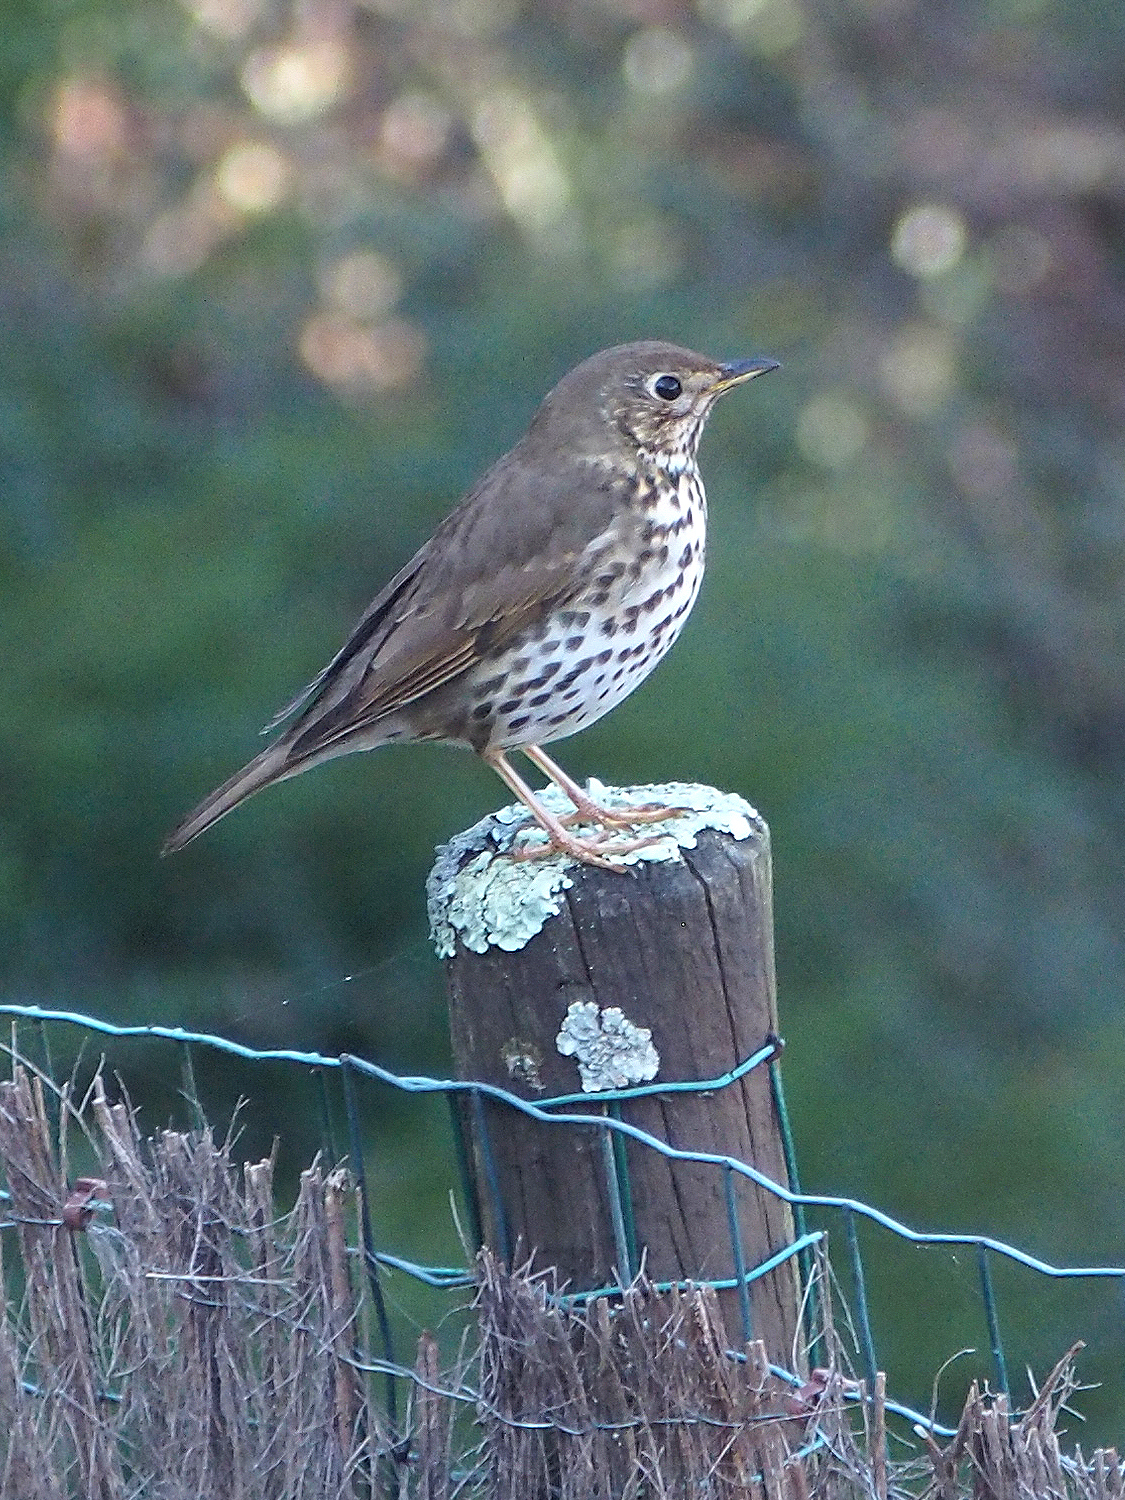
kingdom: Animalia
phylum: Chordata
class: Aves
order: Passeriformes
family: Turdidae
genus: Turdus
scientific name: Turdus philomelos
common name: Song thrush
